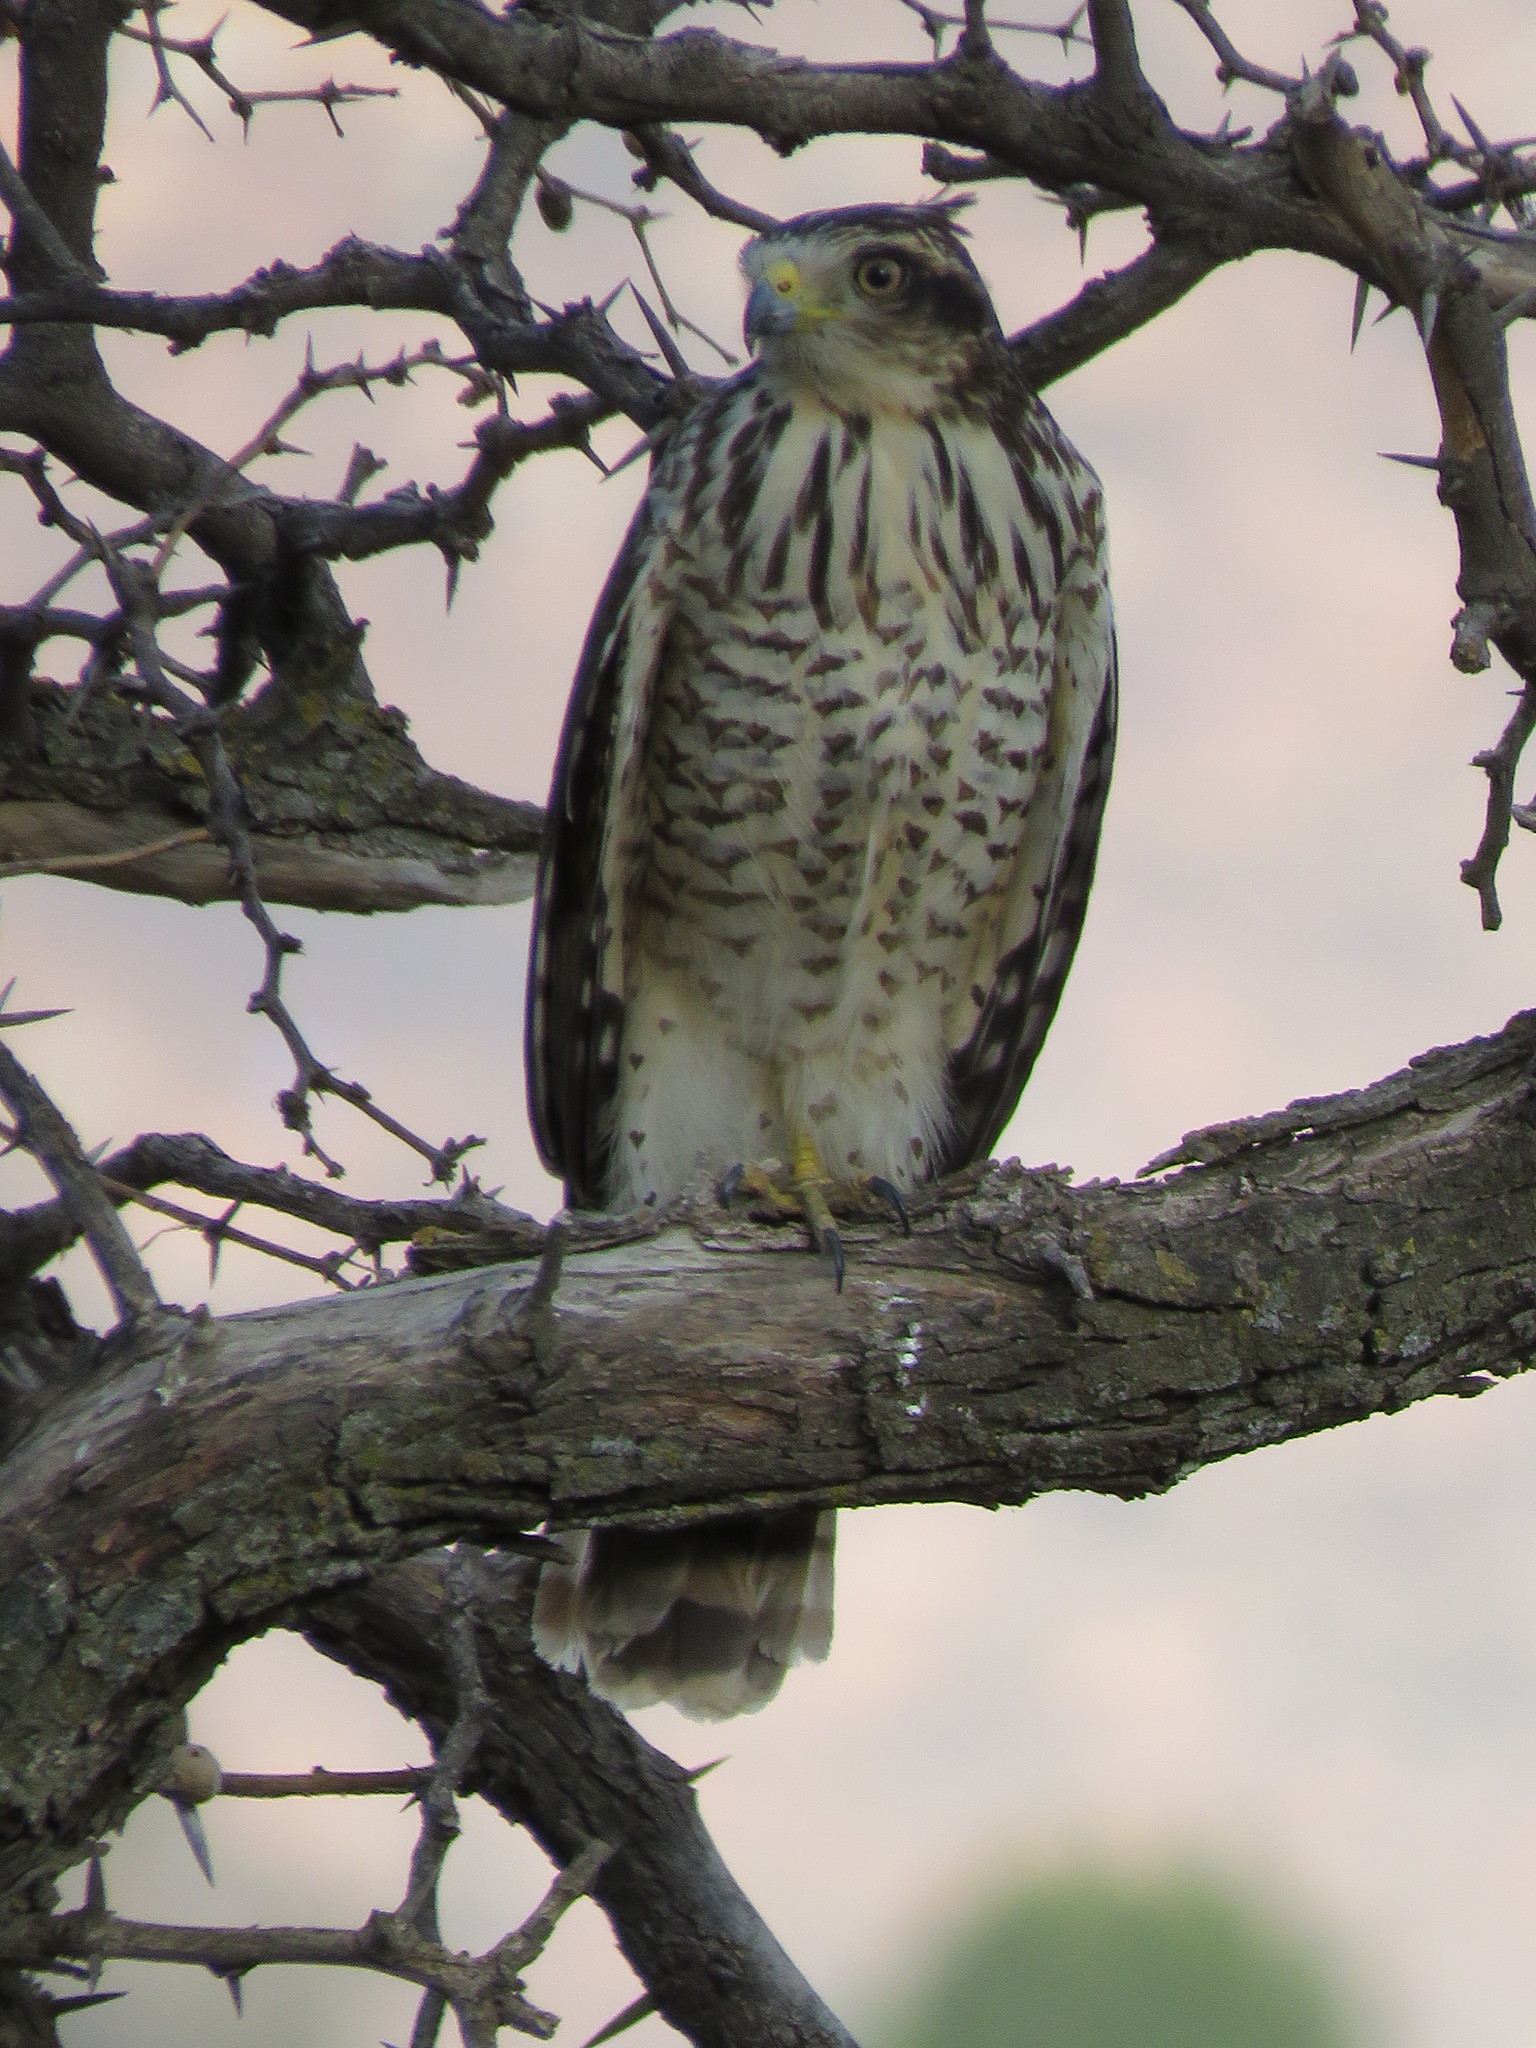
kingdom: Animalia
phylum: Chordata
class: Aves
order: Accipitriformes
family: Accipitridae
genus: Rupornis
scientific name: Rupornis magnirostris
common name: Roadside hawk
